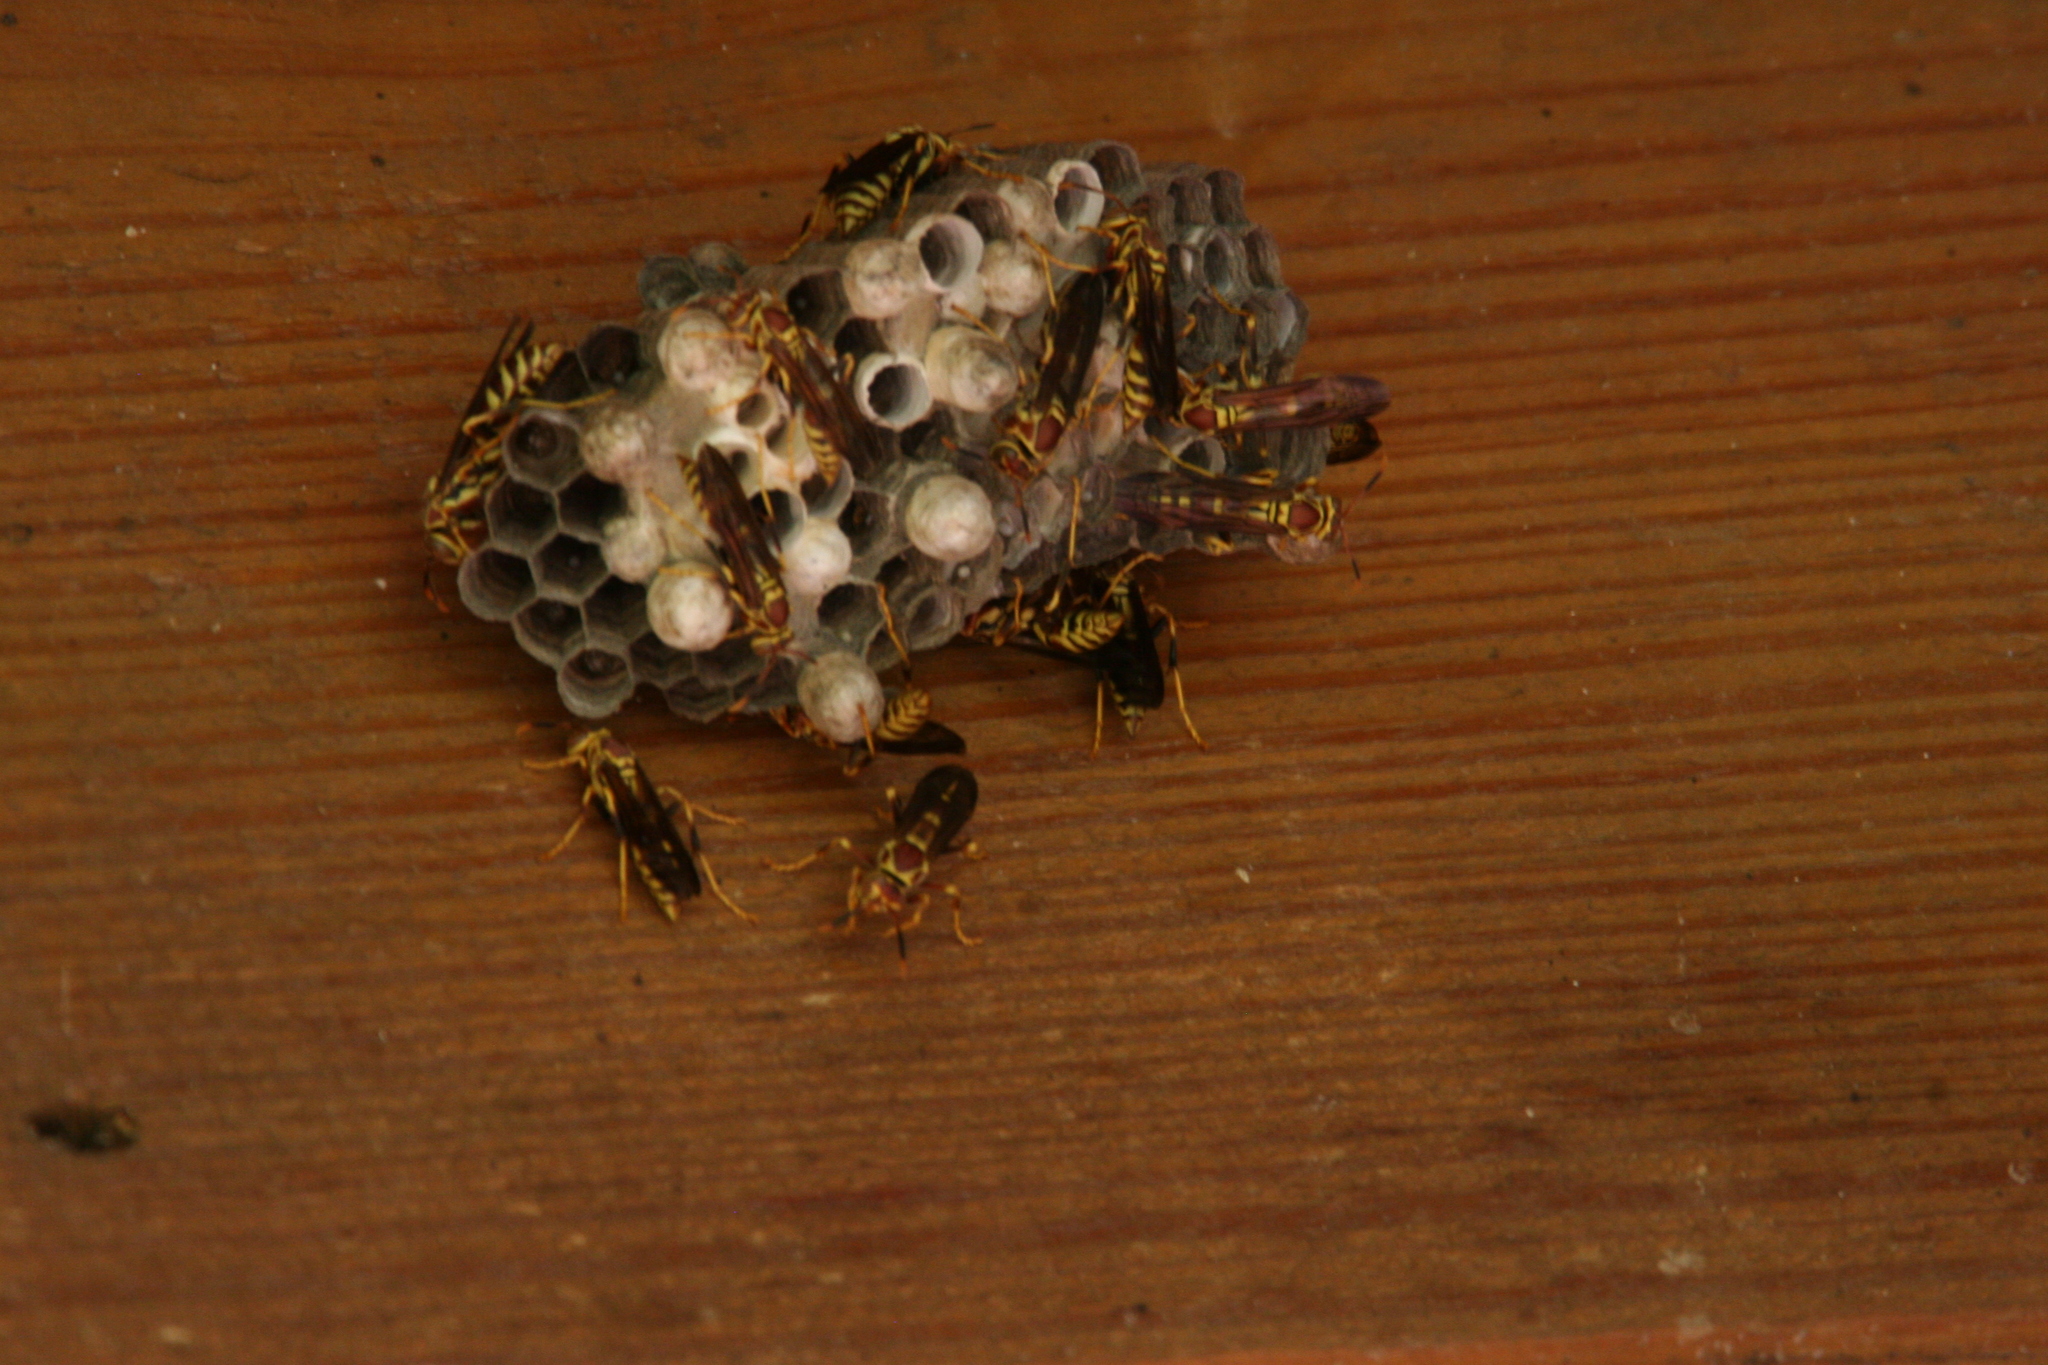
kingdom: Animalia
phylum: Arthropoda
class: Insecta
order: Hymenoptera
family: Eumenidae
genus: Polistes
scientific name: Polistes exclamans
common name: Paper wasp
